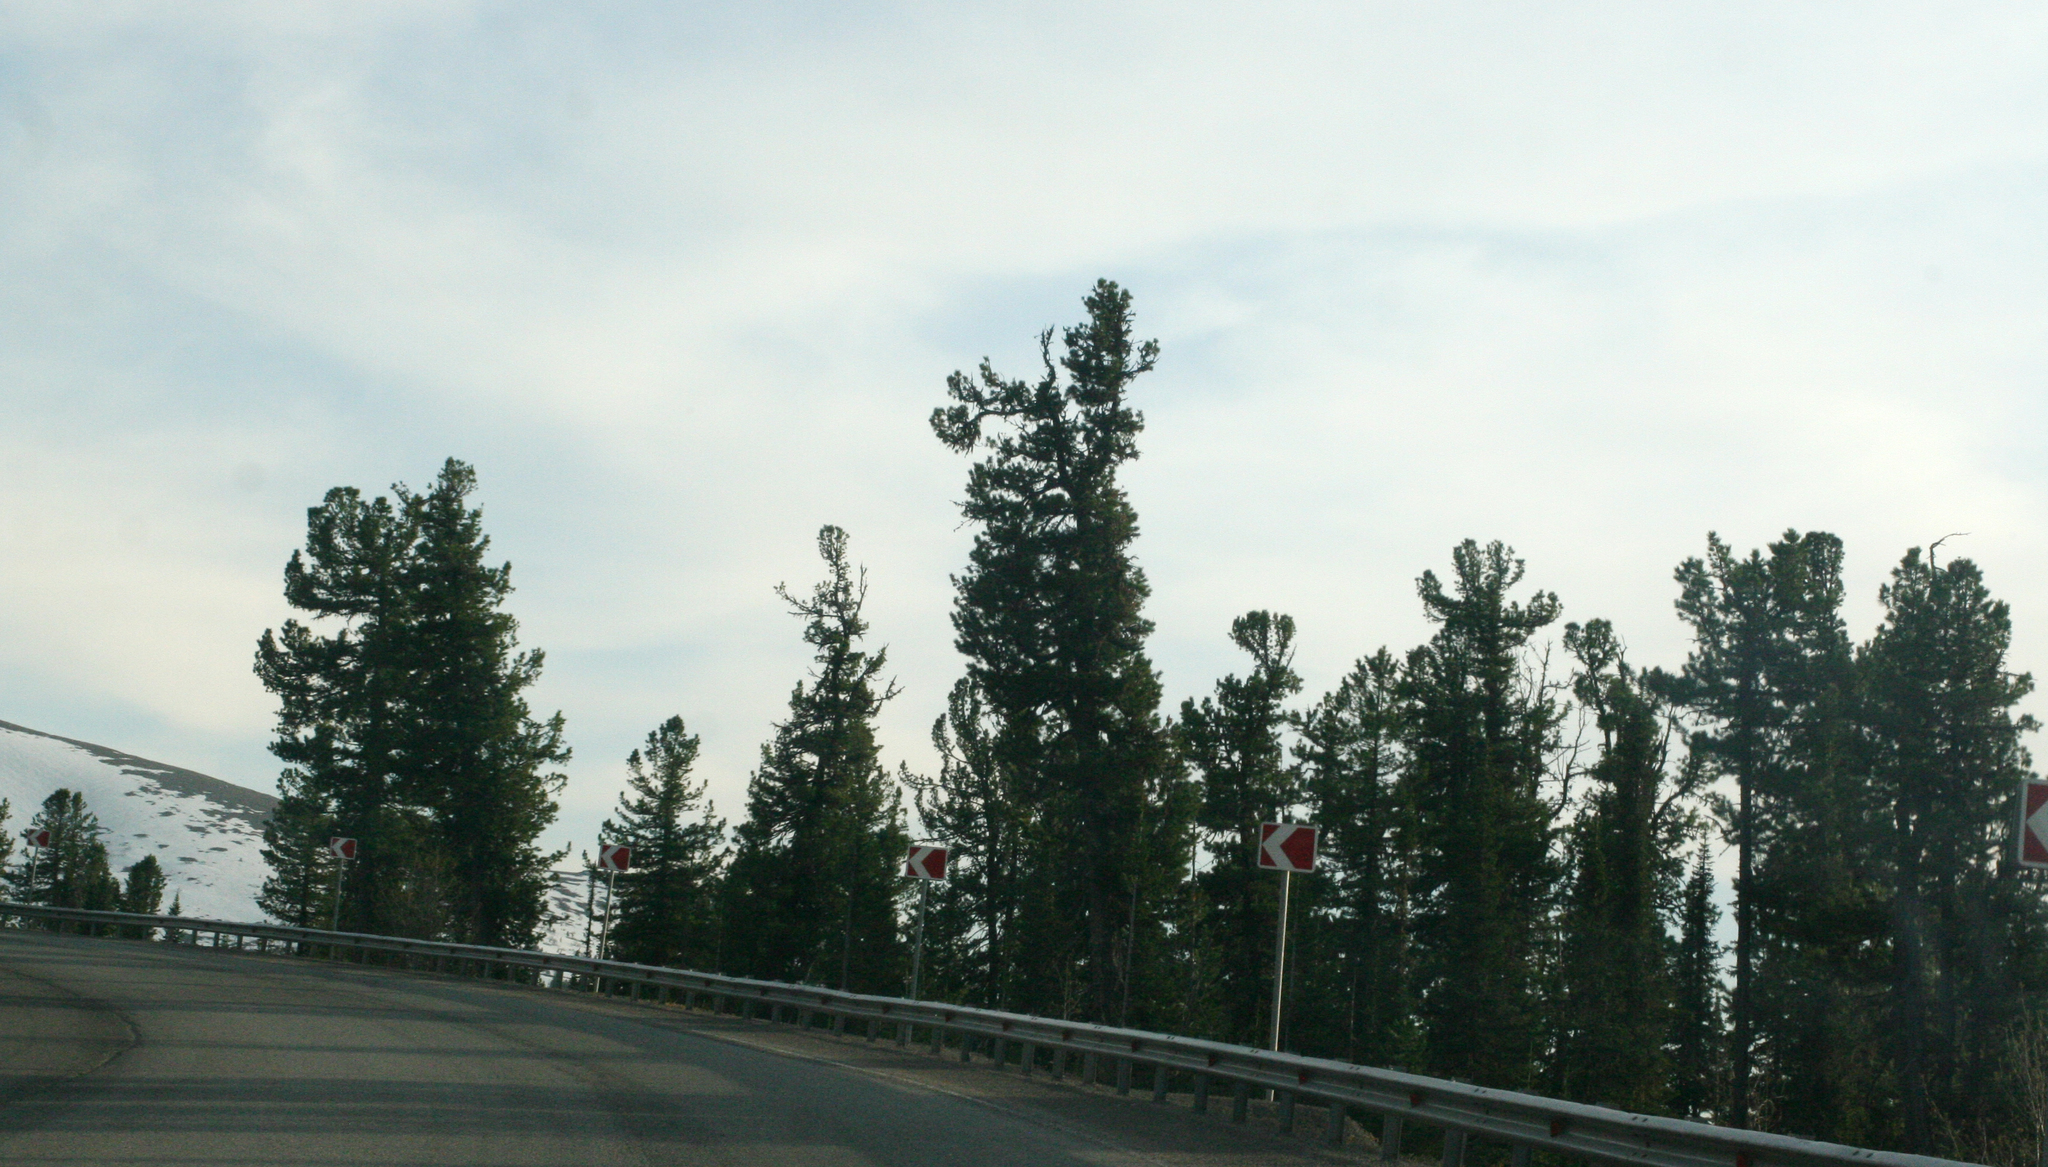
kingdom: Plantae
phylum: Tracheophyta
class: Pinopsida
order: Pinales
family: Pinaceae
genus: Pinus
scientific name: Pinus sibirica
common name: Siberian pine
